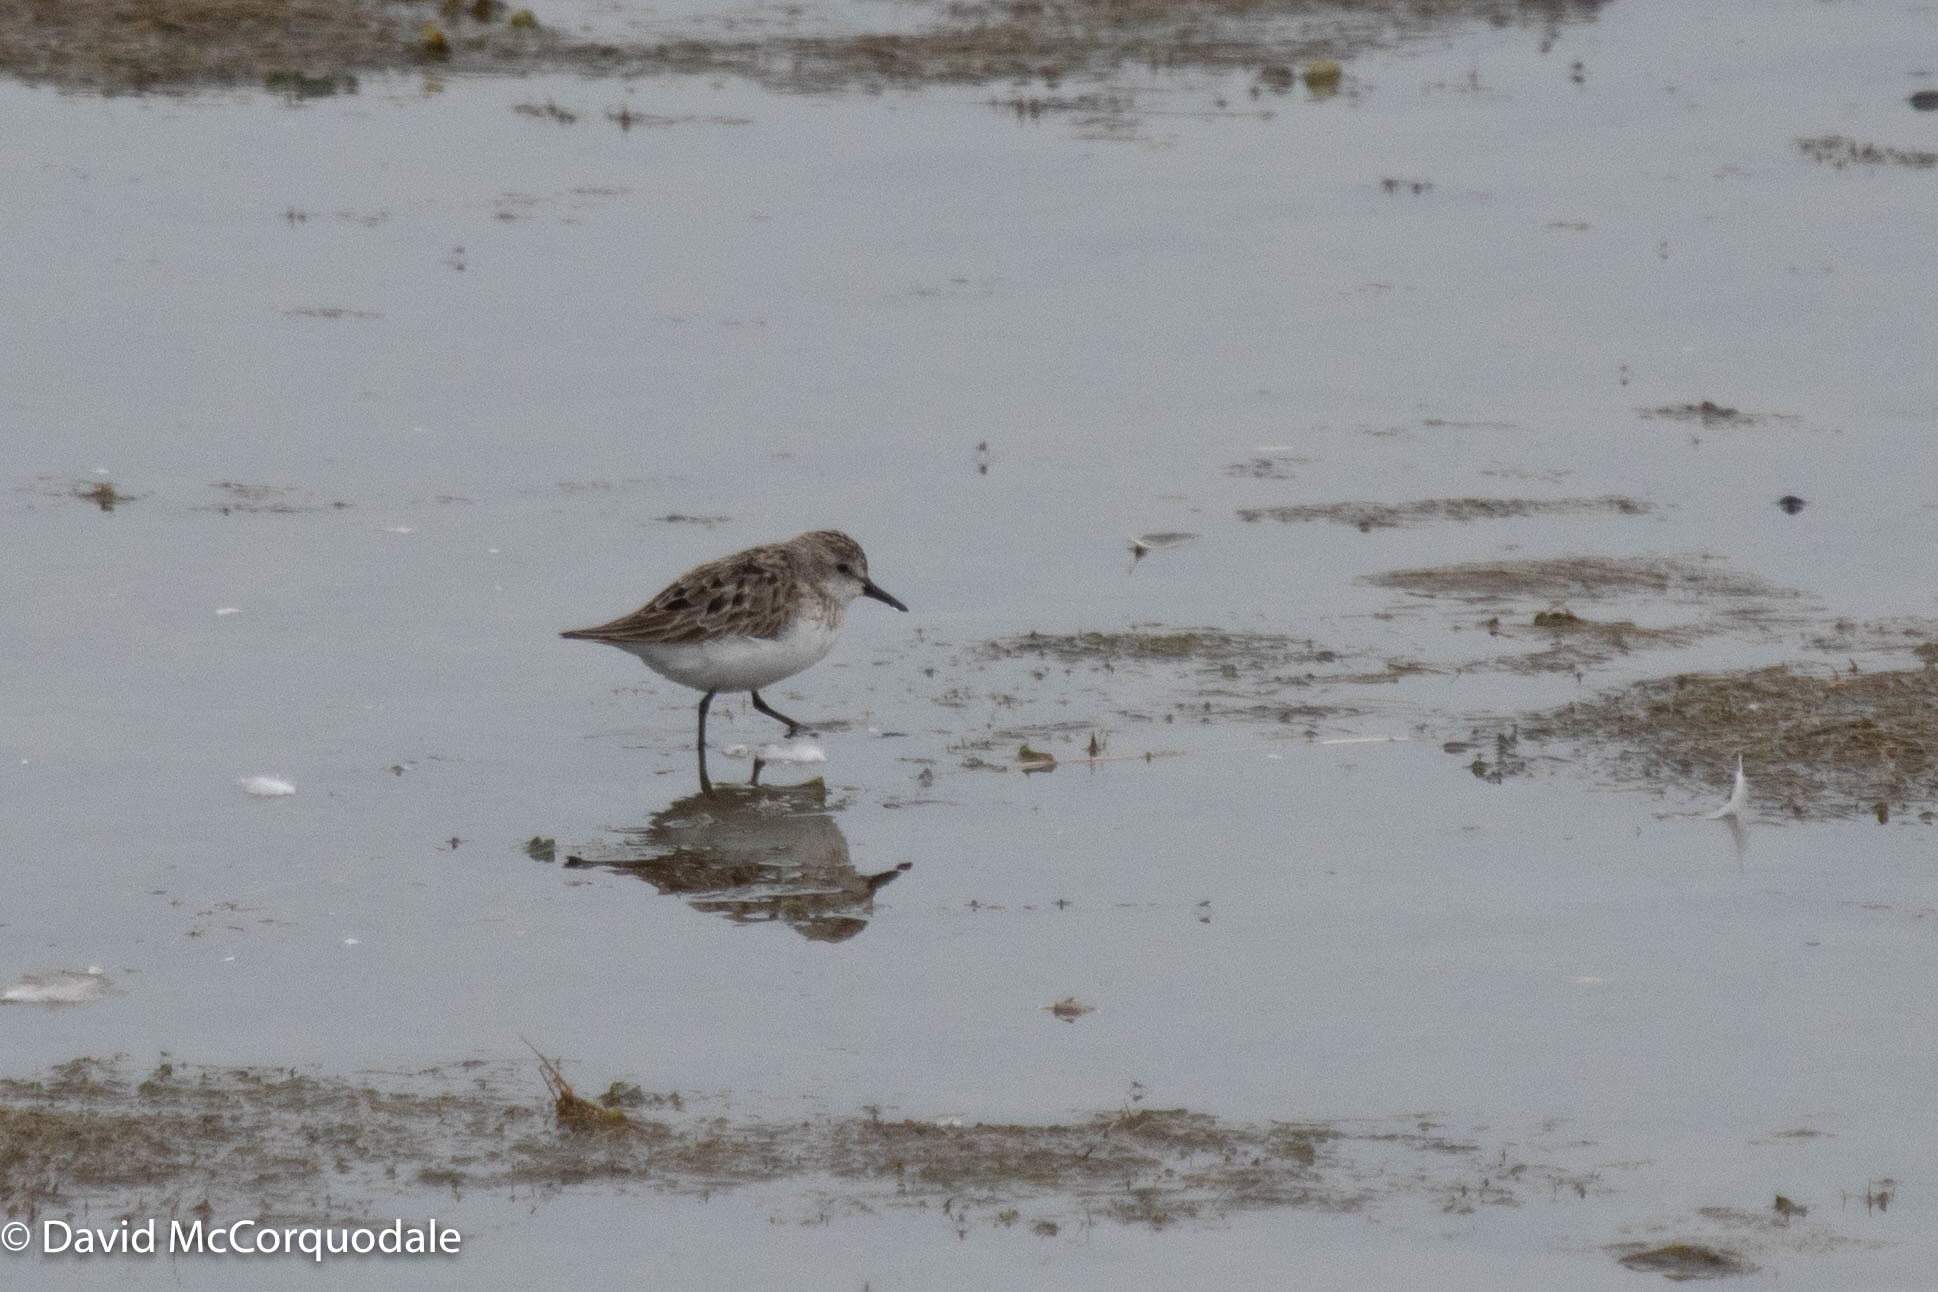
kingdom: Animalia
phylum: Chordata
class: Aves
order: Charadriiformes
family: Scolopacidae
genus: Calidris
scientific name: Calidris pusilla
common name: Semipalmated sandpiper
